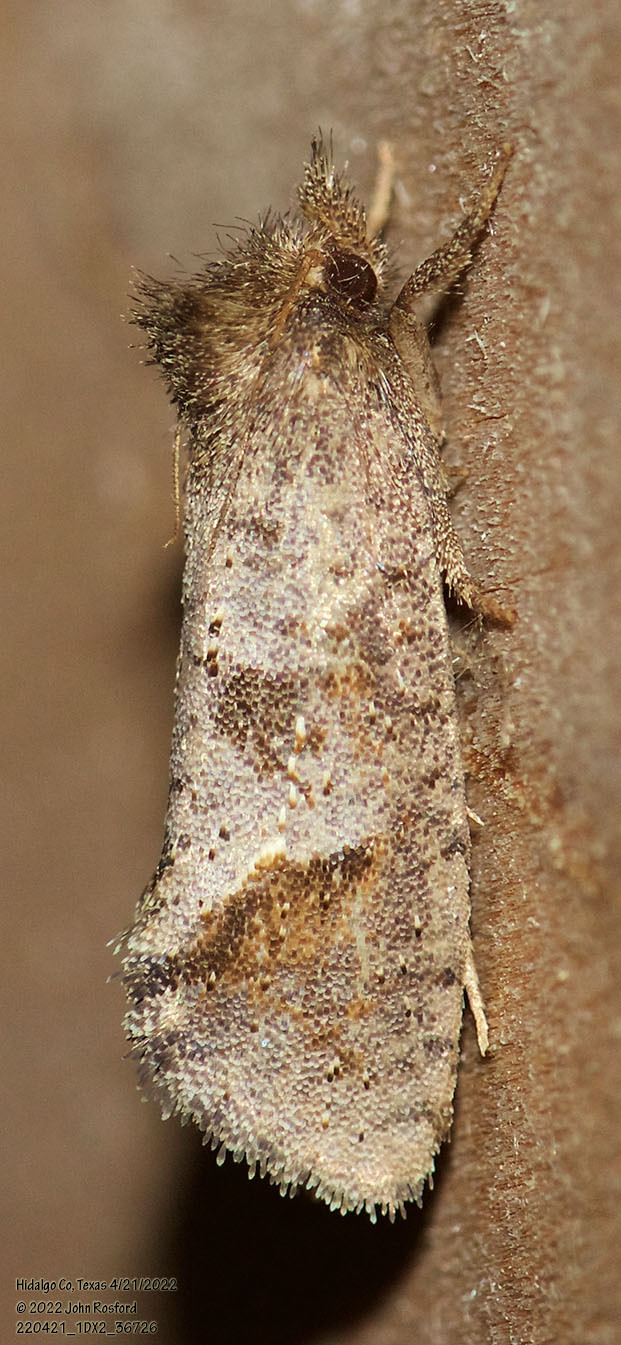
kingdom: Animalia
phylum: Arthropoda
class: Insecta
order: Lepidoptera
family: Tineidae
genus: Acrolophus
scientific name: Acrolophus texanella
